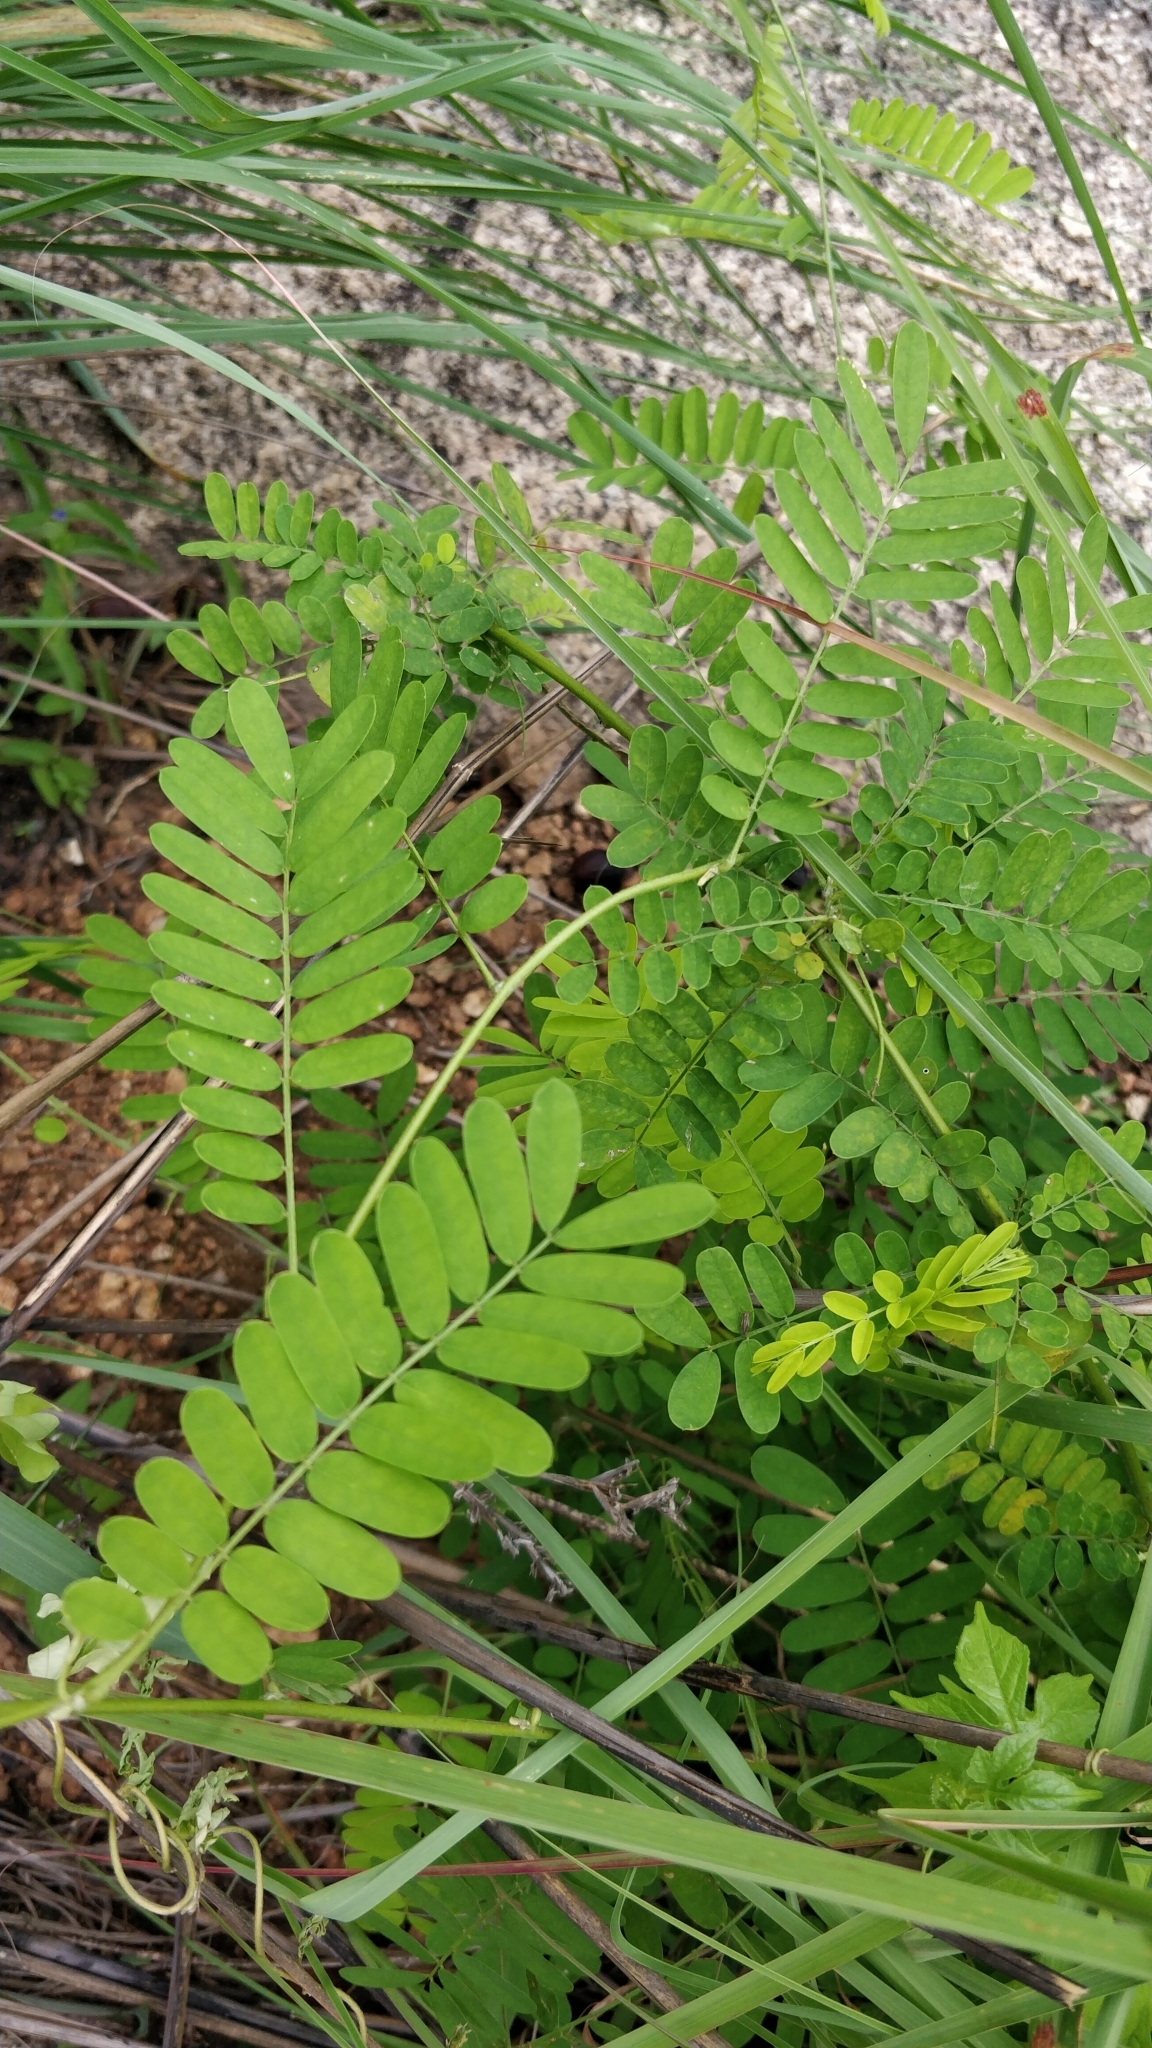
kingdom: Plantae
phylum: Tracheophyta
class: Magnoliopsida
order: Fabales
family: Fabaceae
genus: Abrus
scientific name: Abrus precatorius
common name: Rosarypea
